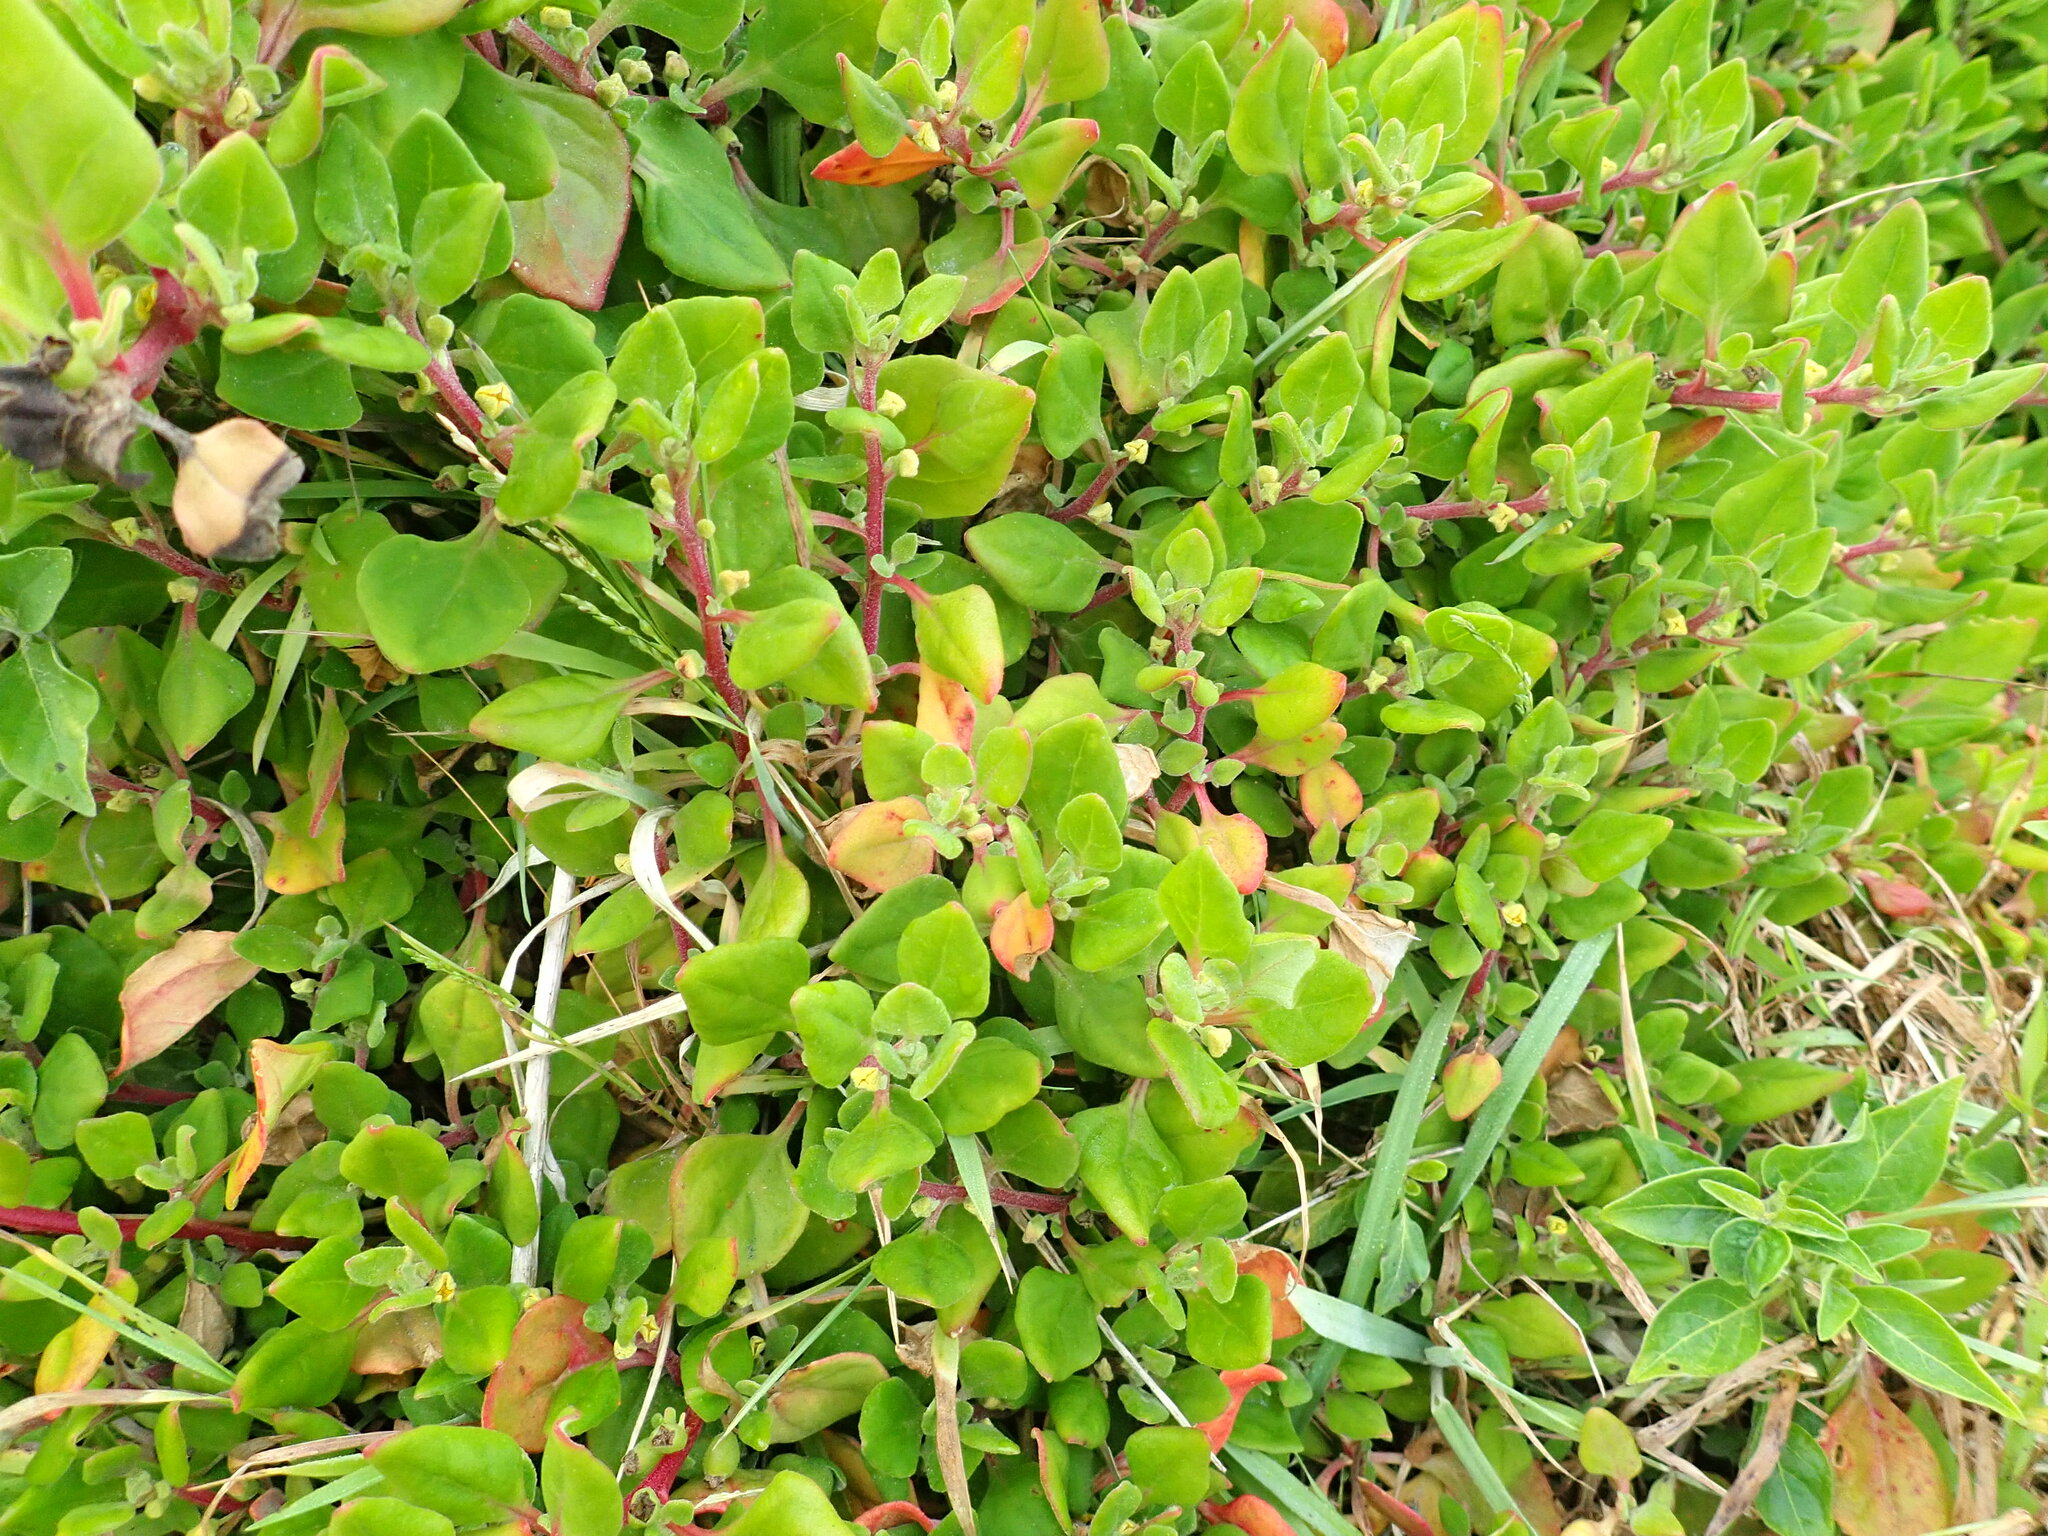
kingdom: Plantae
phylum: Tracheophyta
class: Magnoliopsida
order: Caryophyllales
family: Aizoaceae
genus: Tetragonia
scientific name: Tetragonia implexicoma
